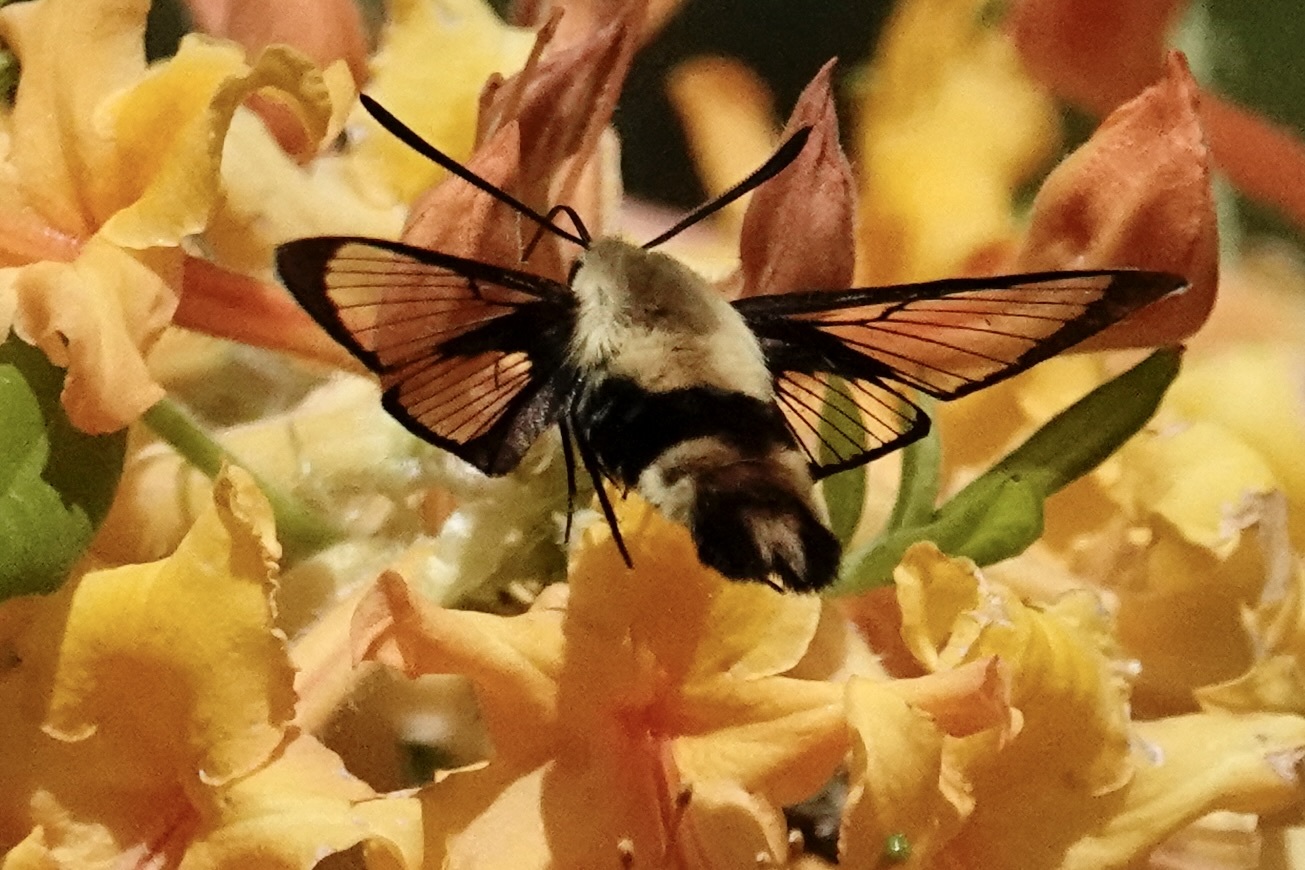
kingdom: Animalia
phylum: Arthropoda
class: Insecta
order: Lepidoptera
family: Sphingidae
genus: Hemaris
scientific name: Hemaris diffinis
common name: Bumblebee moth
